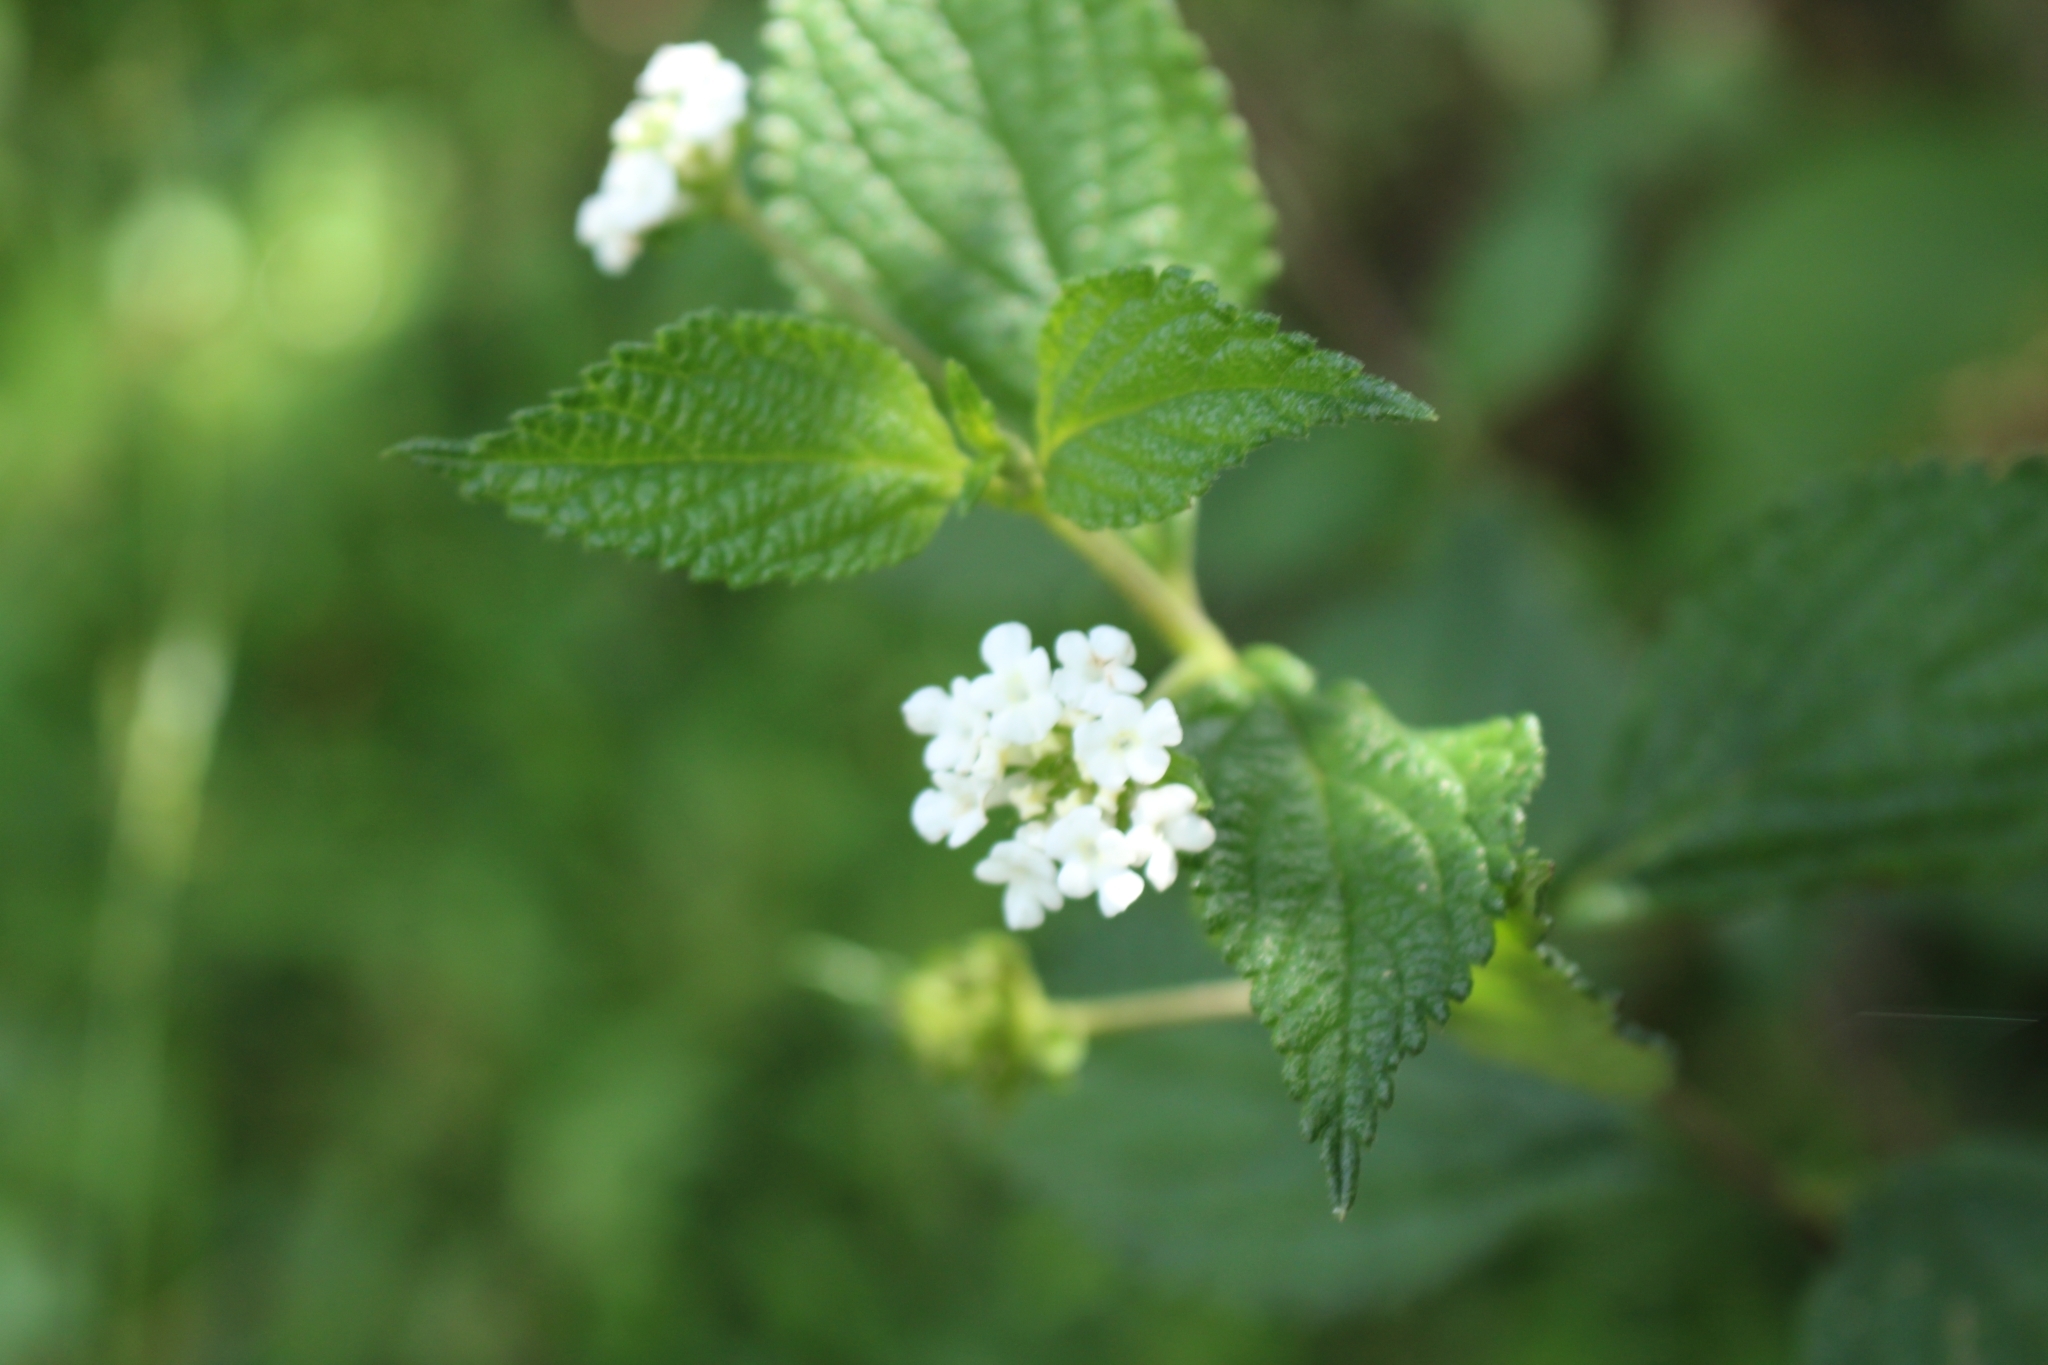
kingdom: Plantae
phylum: Tracheophyta
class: Magnoliopsida
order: Lamiales
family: Verbenaceae
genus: Lantana
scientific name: Lantana hirta
